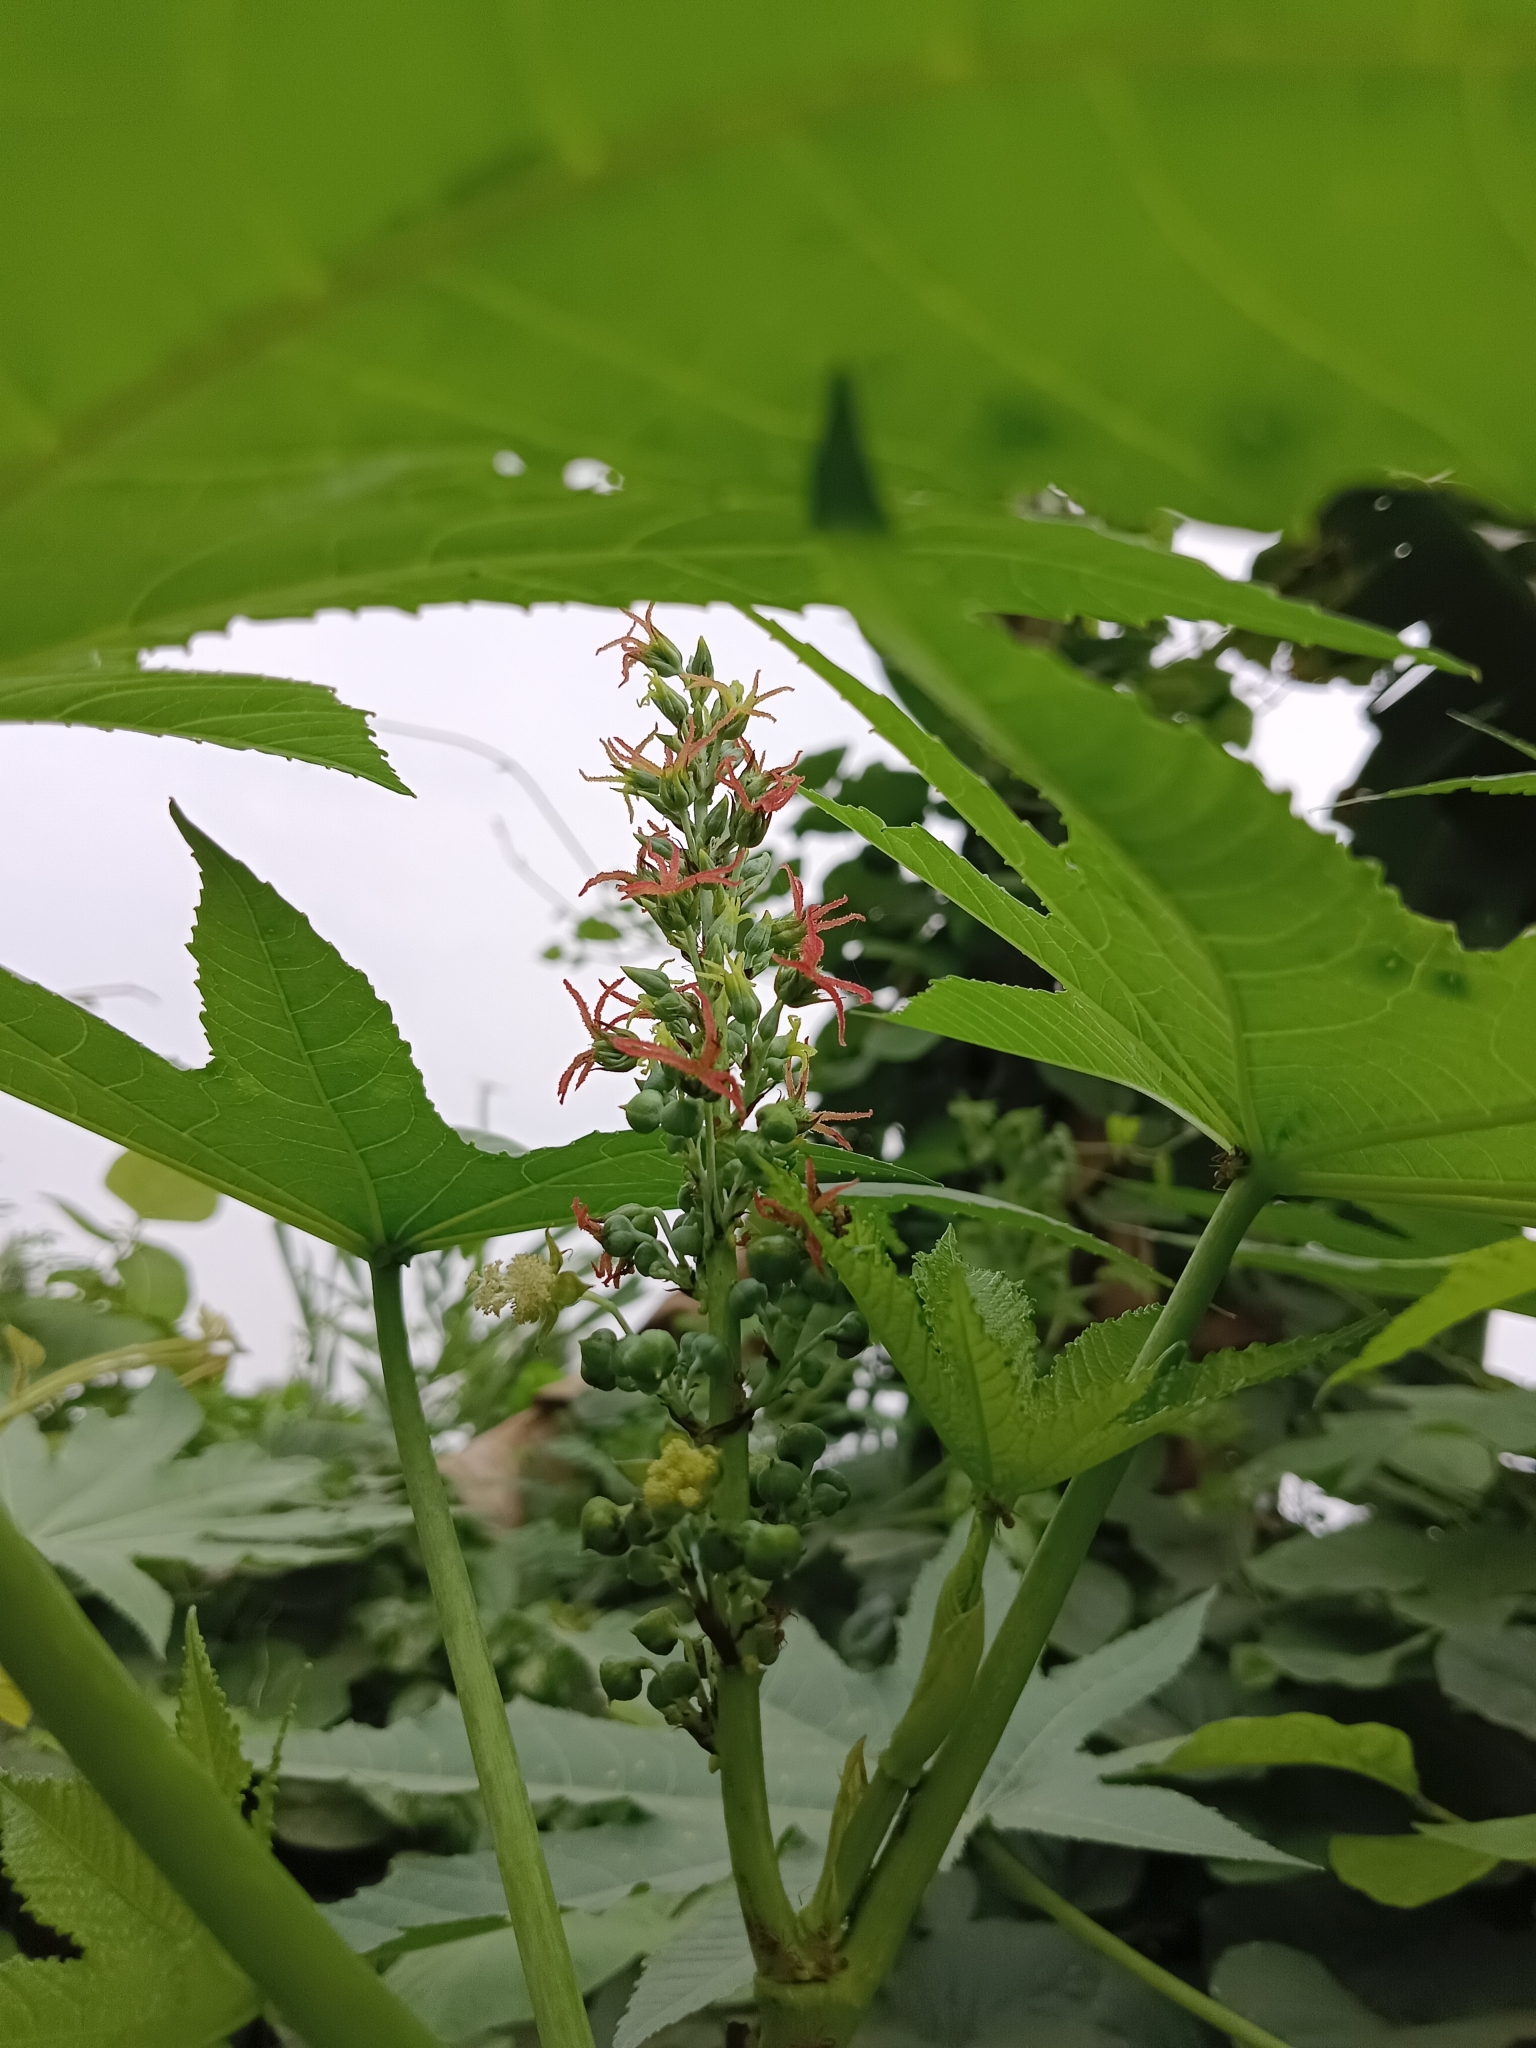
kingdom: Plantae
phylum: Tracheophyta
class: Magnoliopsida
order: Malpighiales
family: Euphorbiaceae
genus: Ricinus
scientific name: Ricinus communis
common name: Castor-oil-plant
